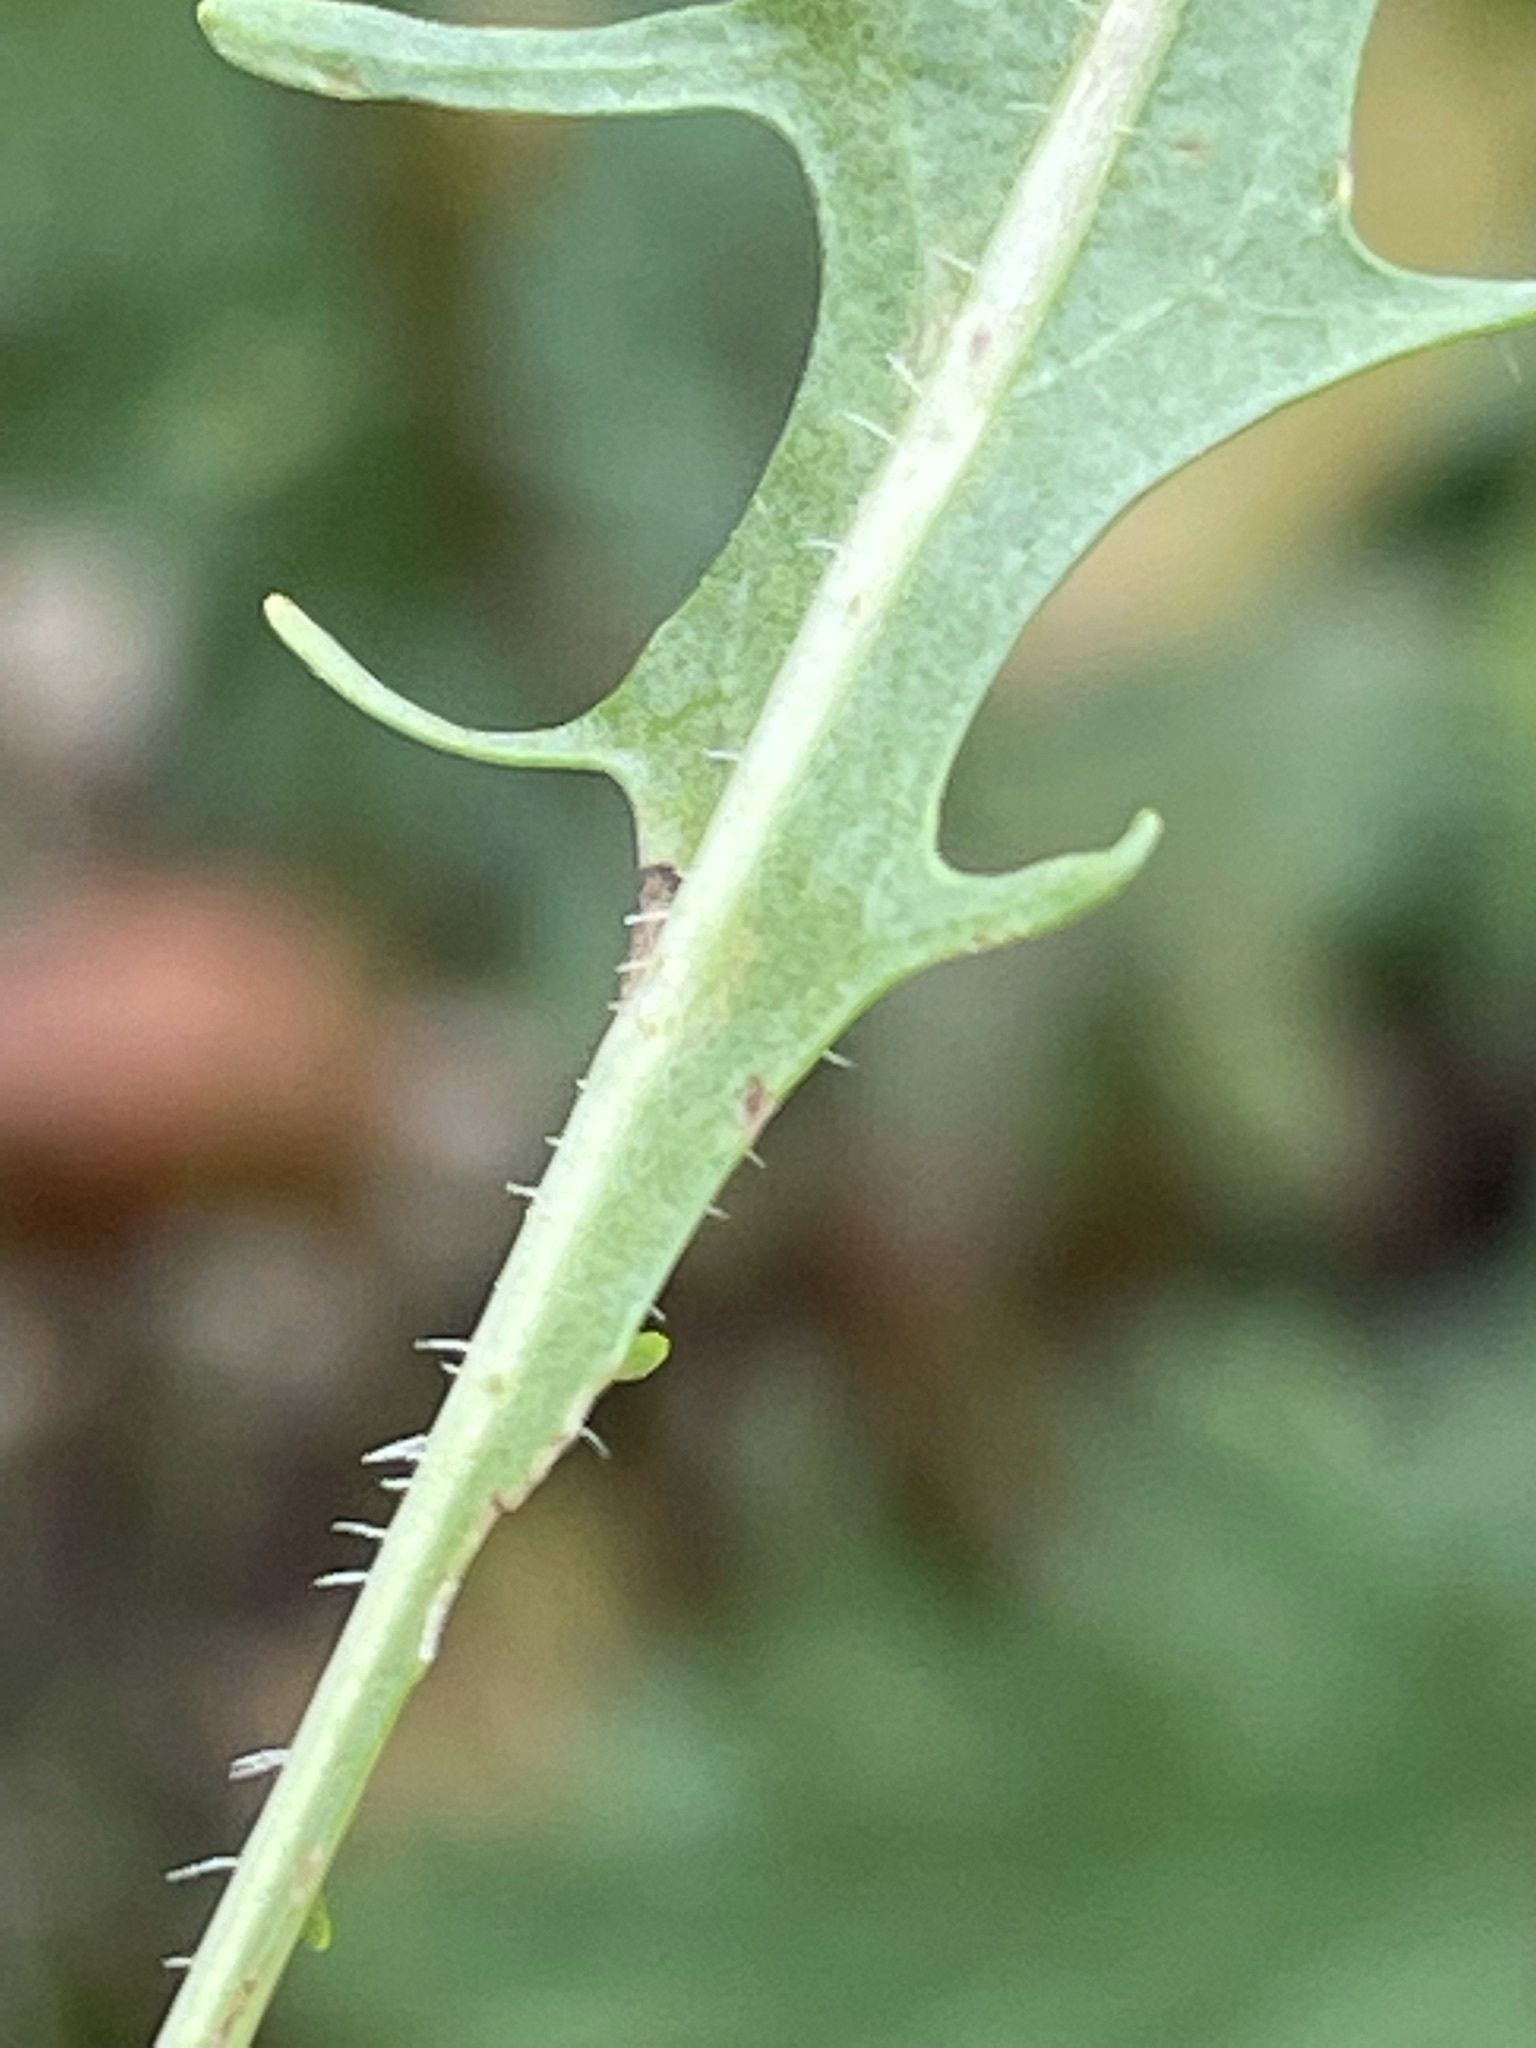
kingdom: Plantae
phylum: Tracheophyta
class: Magnoliopsida
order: Asterales
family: Asteraceae
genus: Scorzoneroides
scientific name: Scorzoneroides autumnalis
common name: Autumn hawkbit
